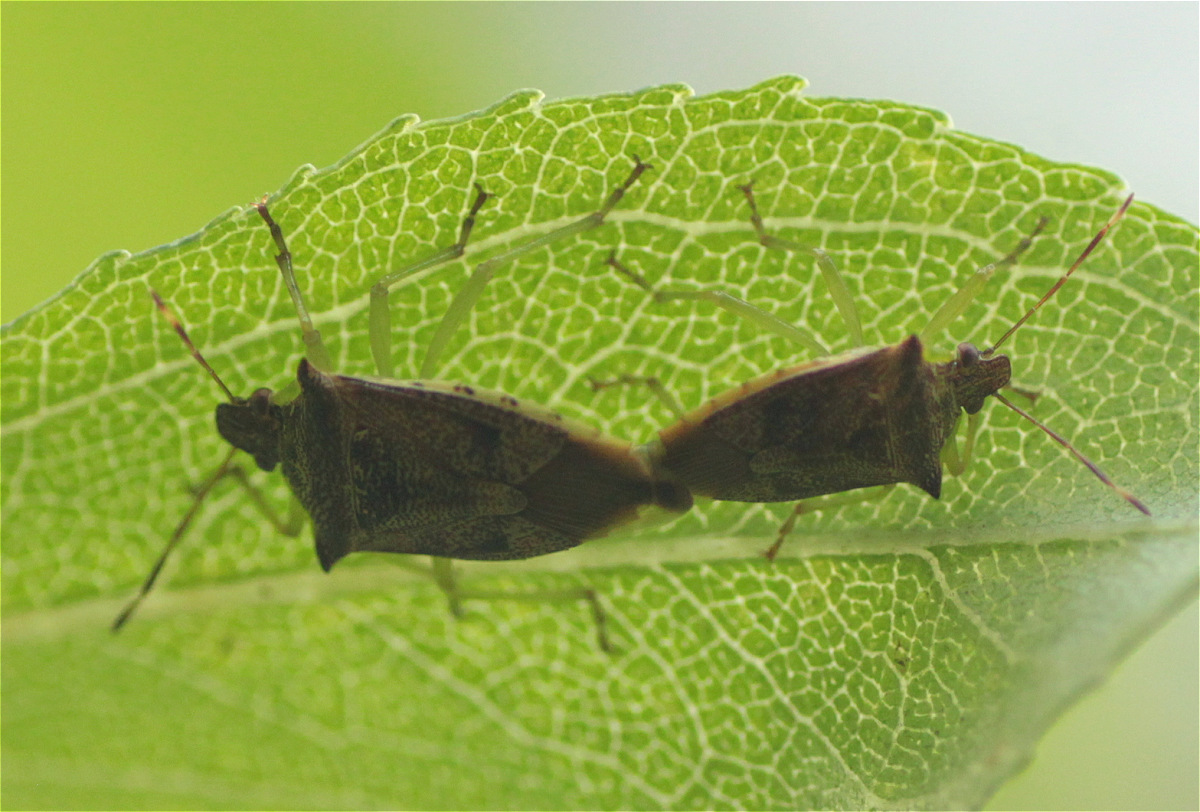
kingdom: Animalia
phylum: Arthropoda
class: Insecta
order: Hemiptera
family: Pentatomidae
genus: Podisus
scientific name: Podisus
